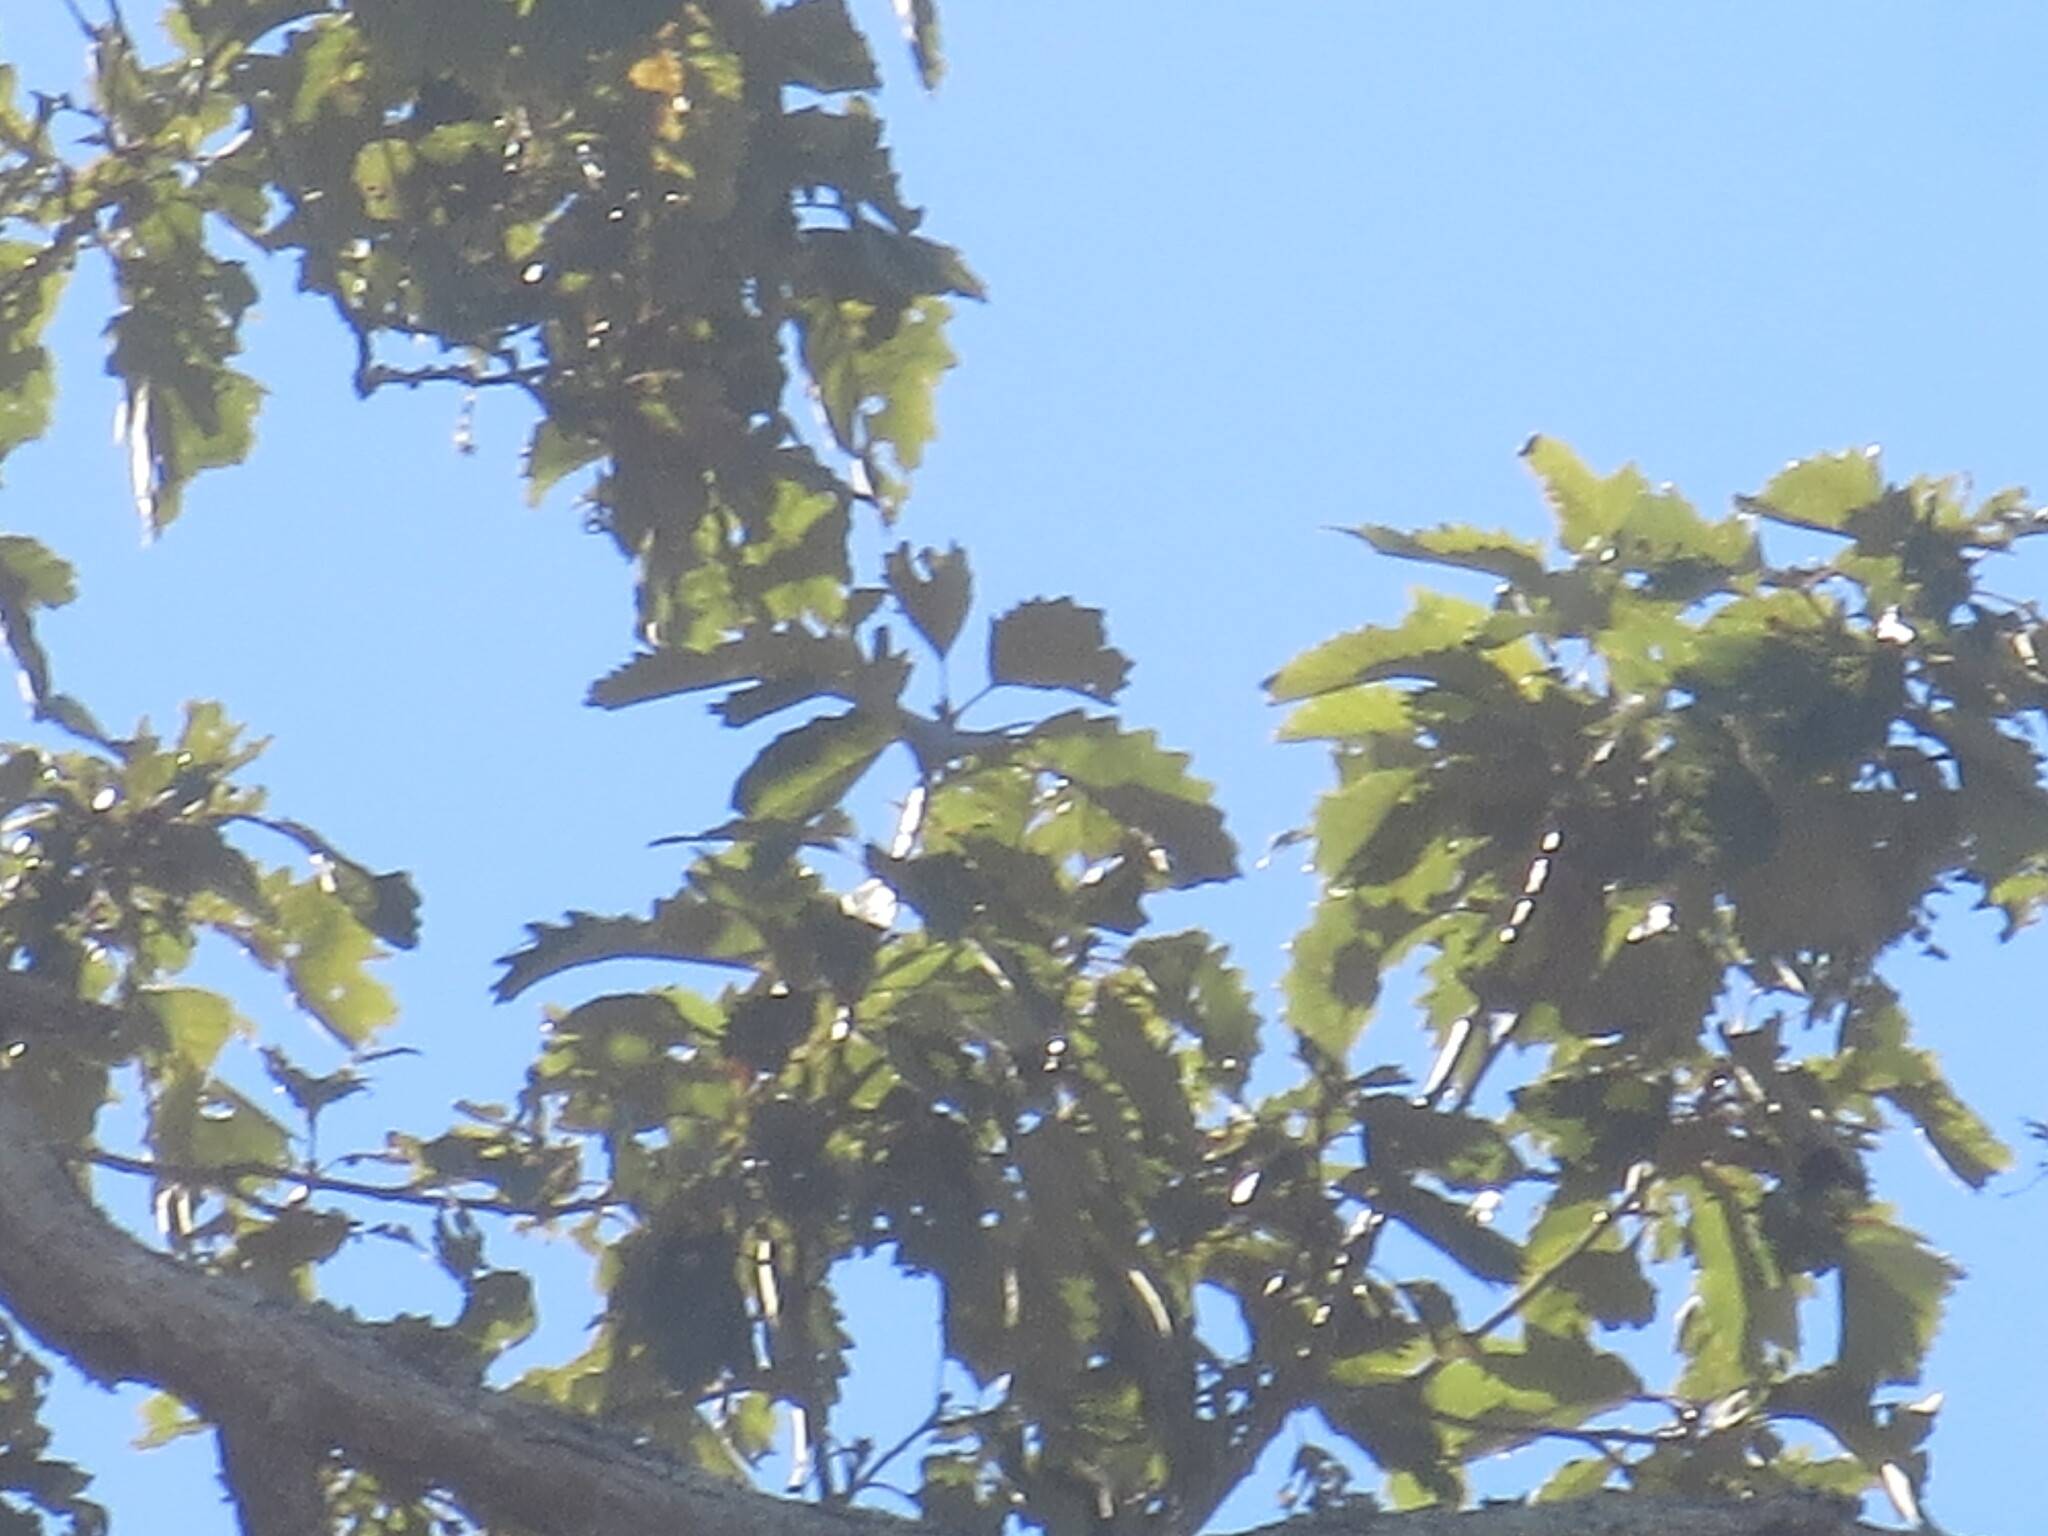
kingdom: Plantae
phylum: Tracheophyta
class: Magnoliopsida
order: Fagales
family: Fagaceae
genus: Quercus
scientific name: Quercus michauxii
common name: Swamp chestnut oak
